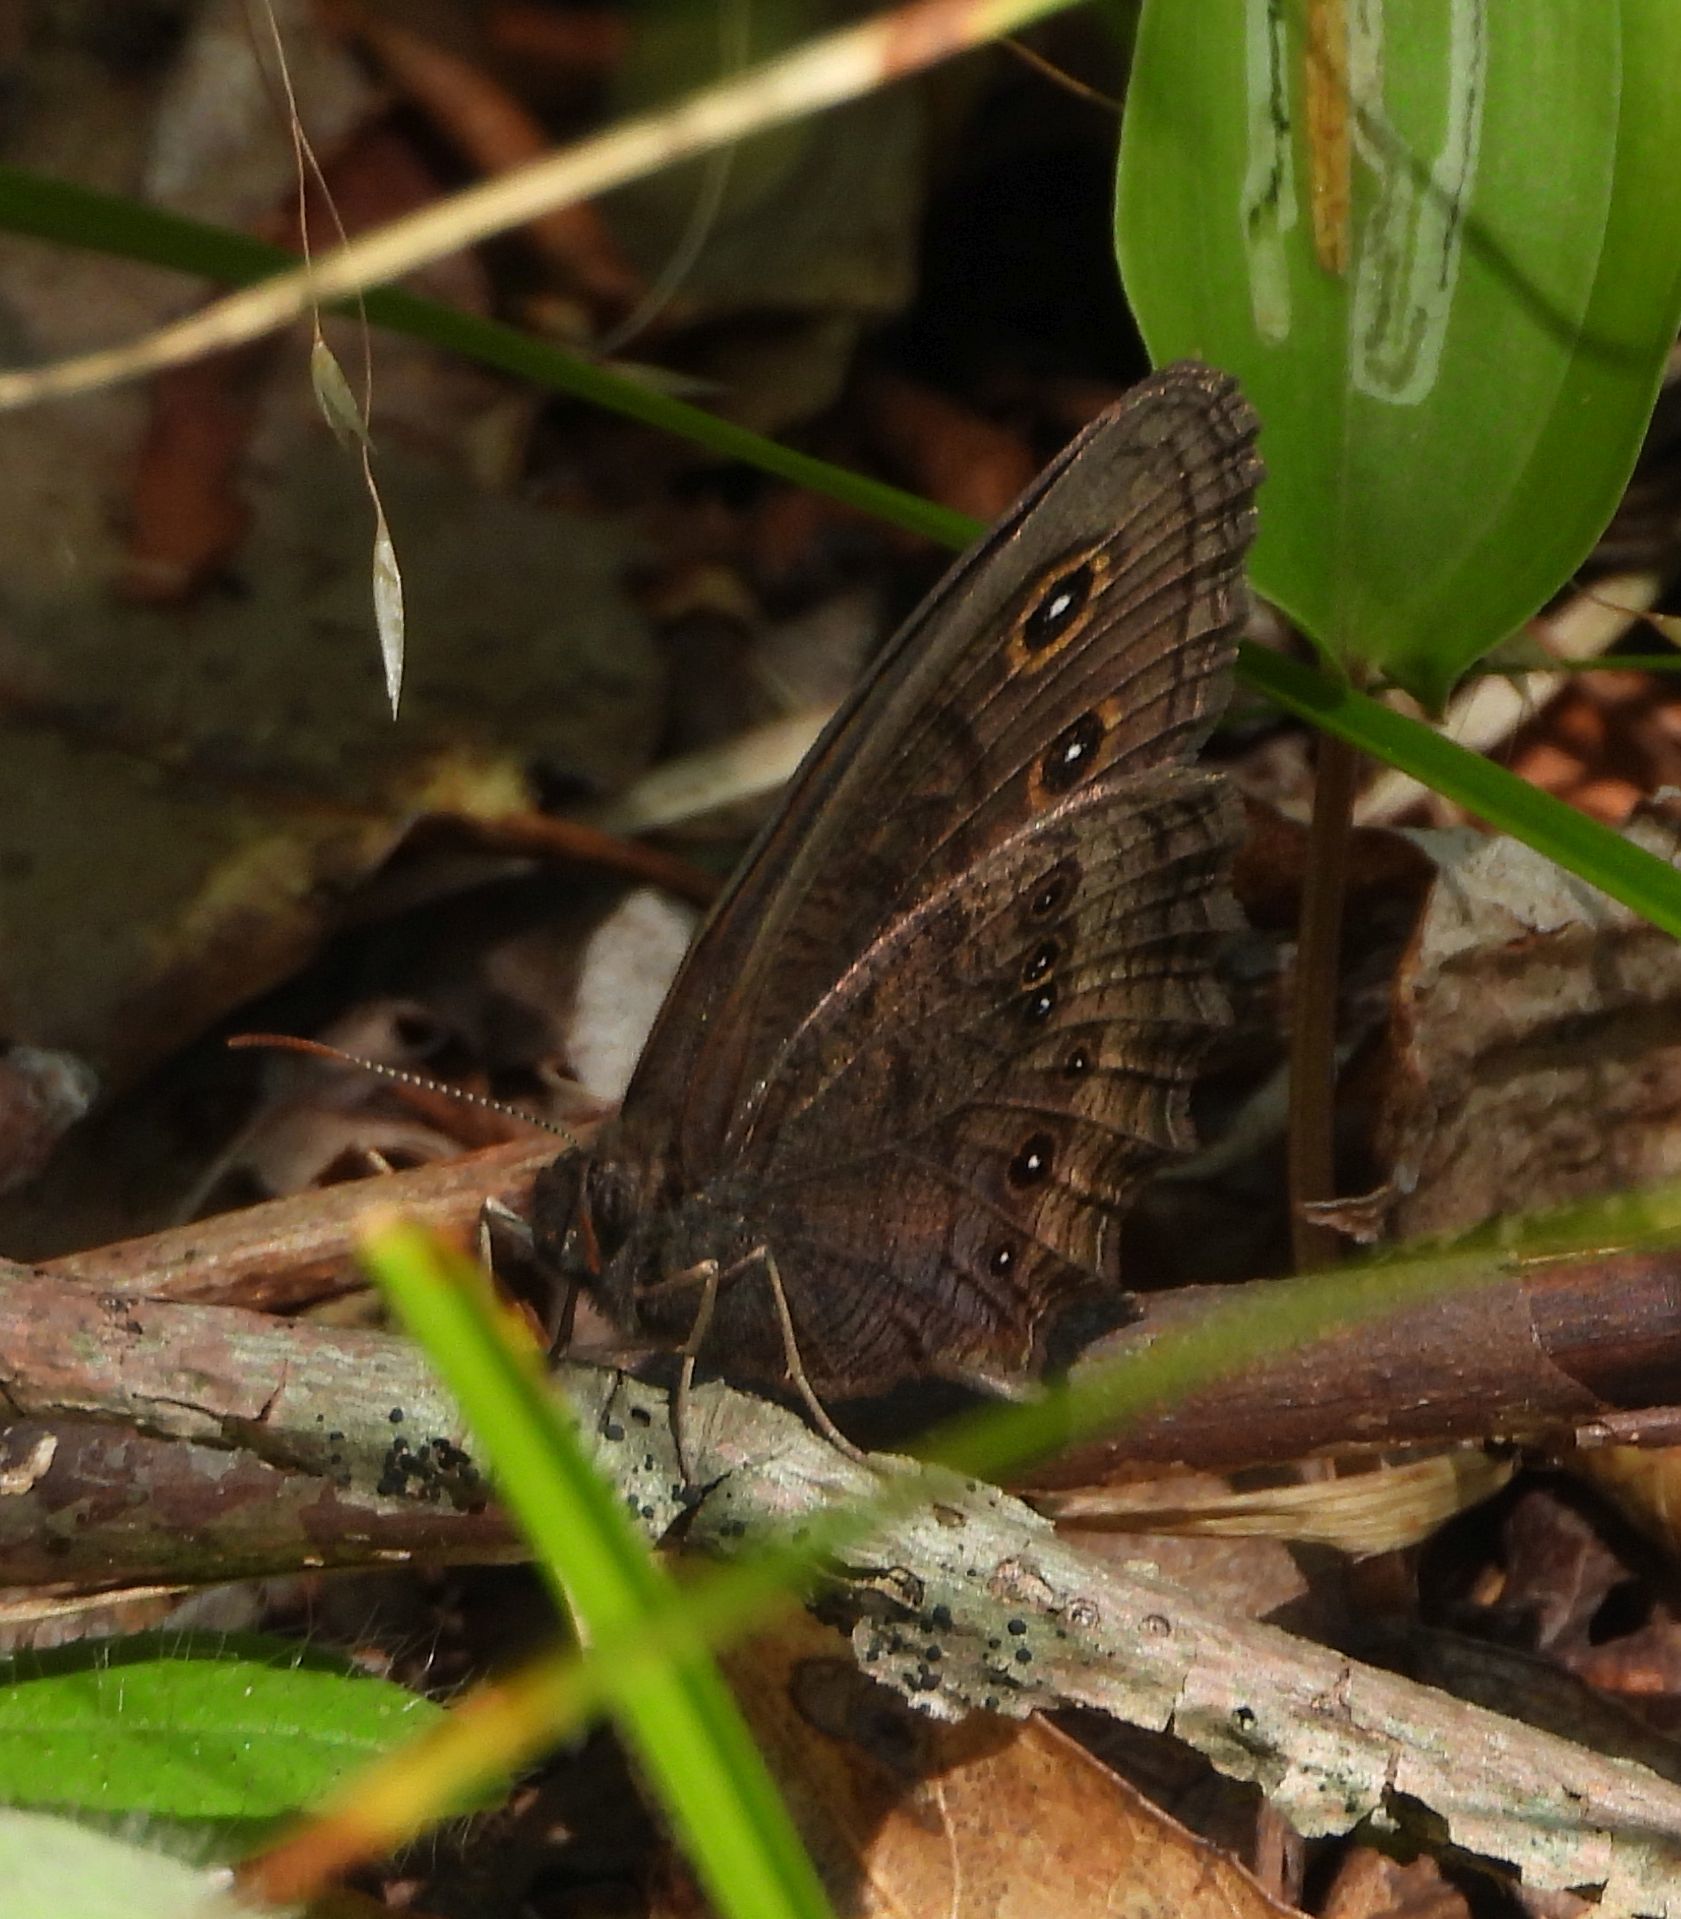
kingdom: Animalia
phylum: Arthropoda
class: Insecta
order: Lepidoptera
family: Nymphalidae
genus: Cercyonis
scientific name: Cercyonis pegala
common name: Common wood-nymph
